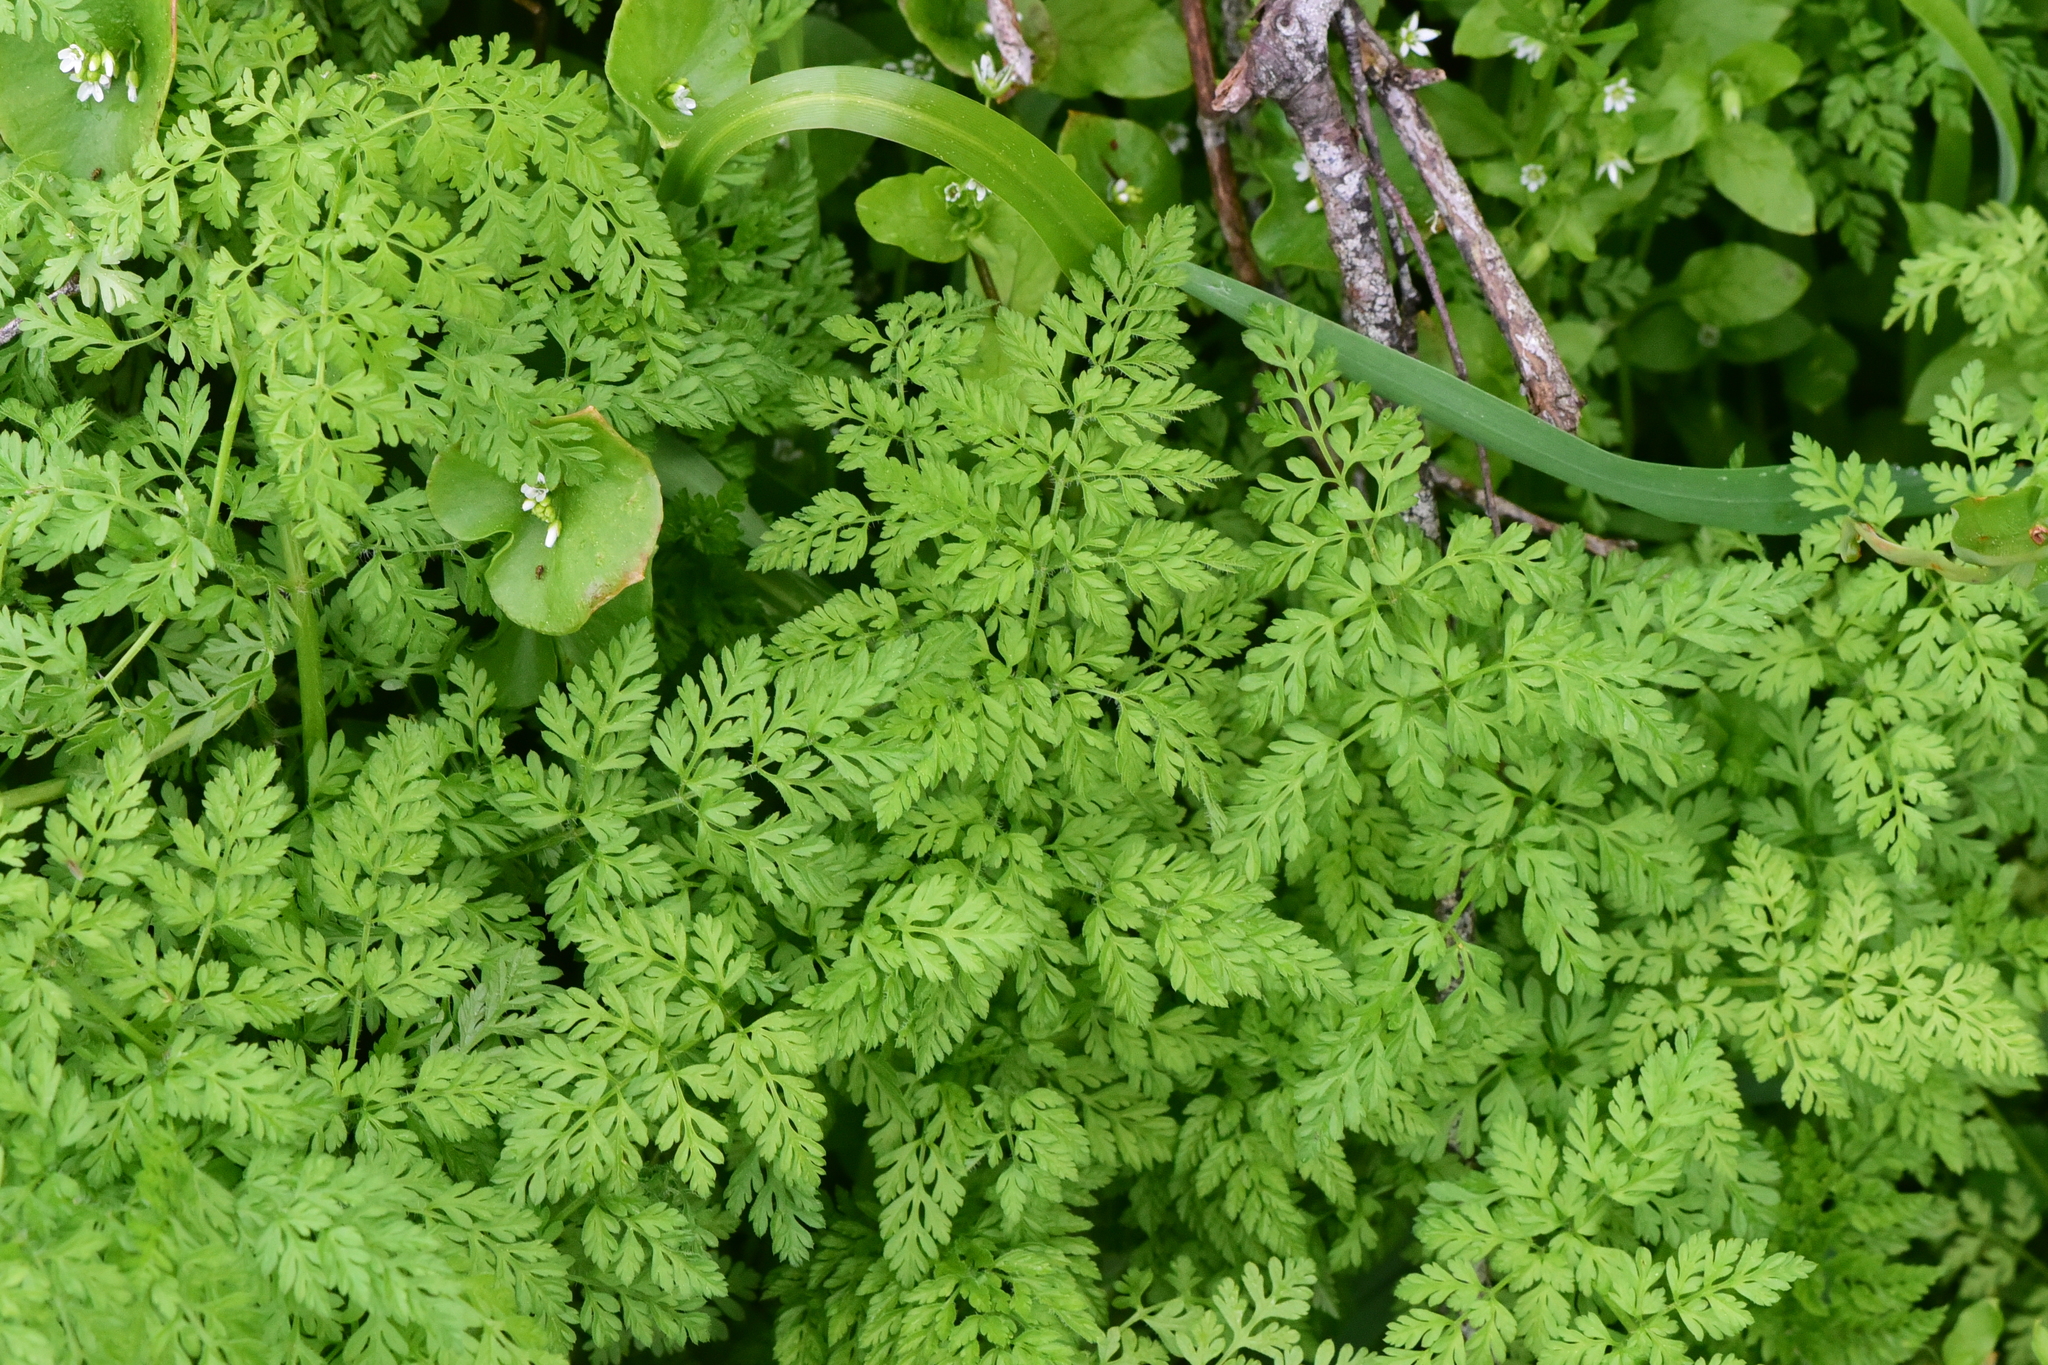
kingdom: Plantae
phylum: Tracheophyta
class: Magnoliopsida
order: Apiales
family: Apiaceae
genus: Anthriscus
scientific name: Anthriscus caucalis
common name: Bur chervil
